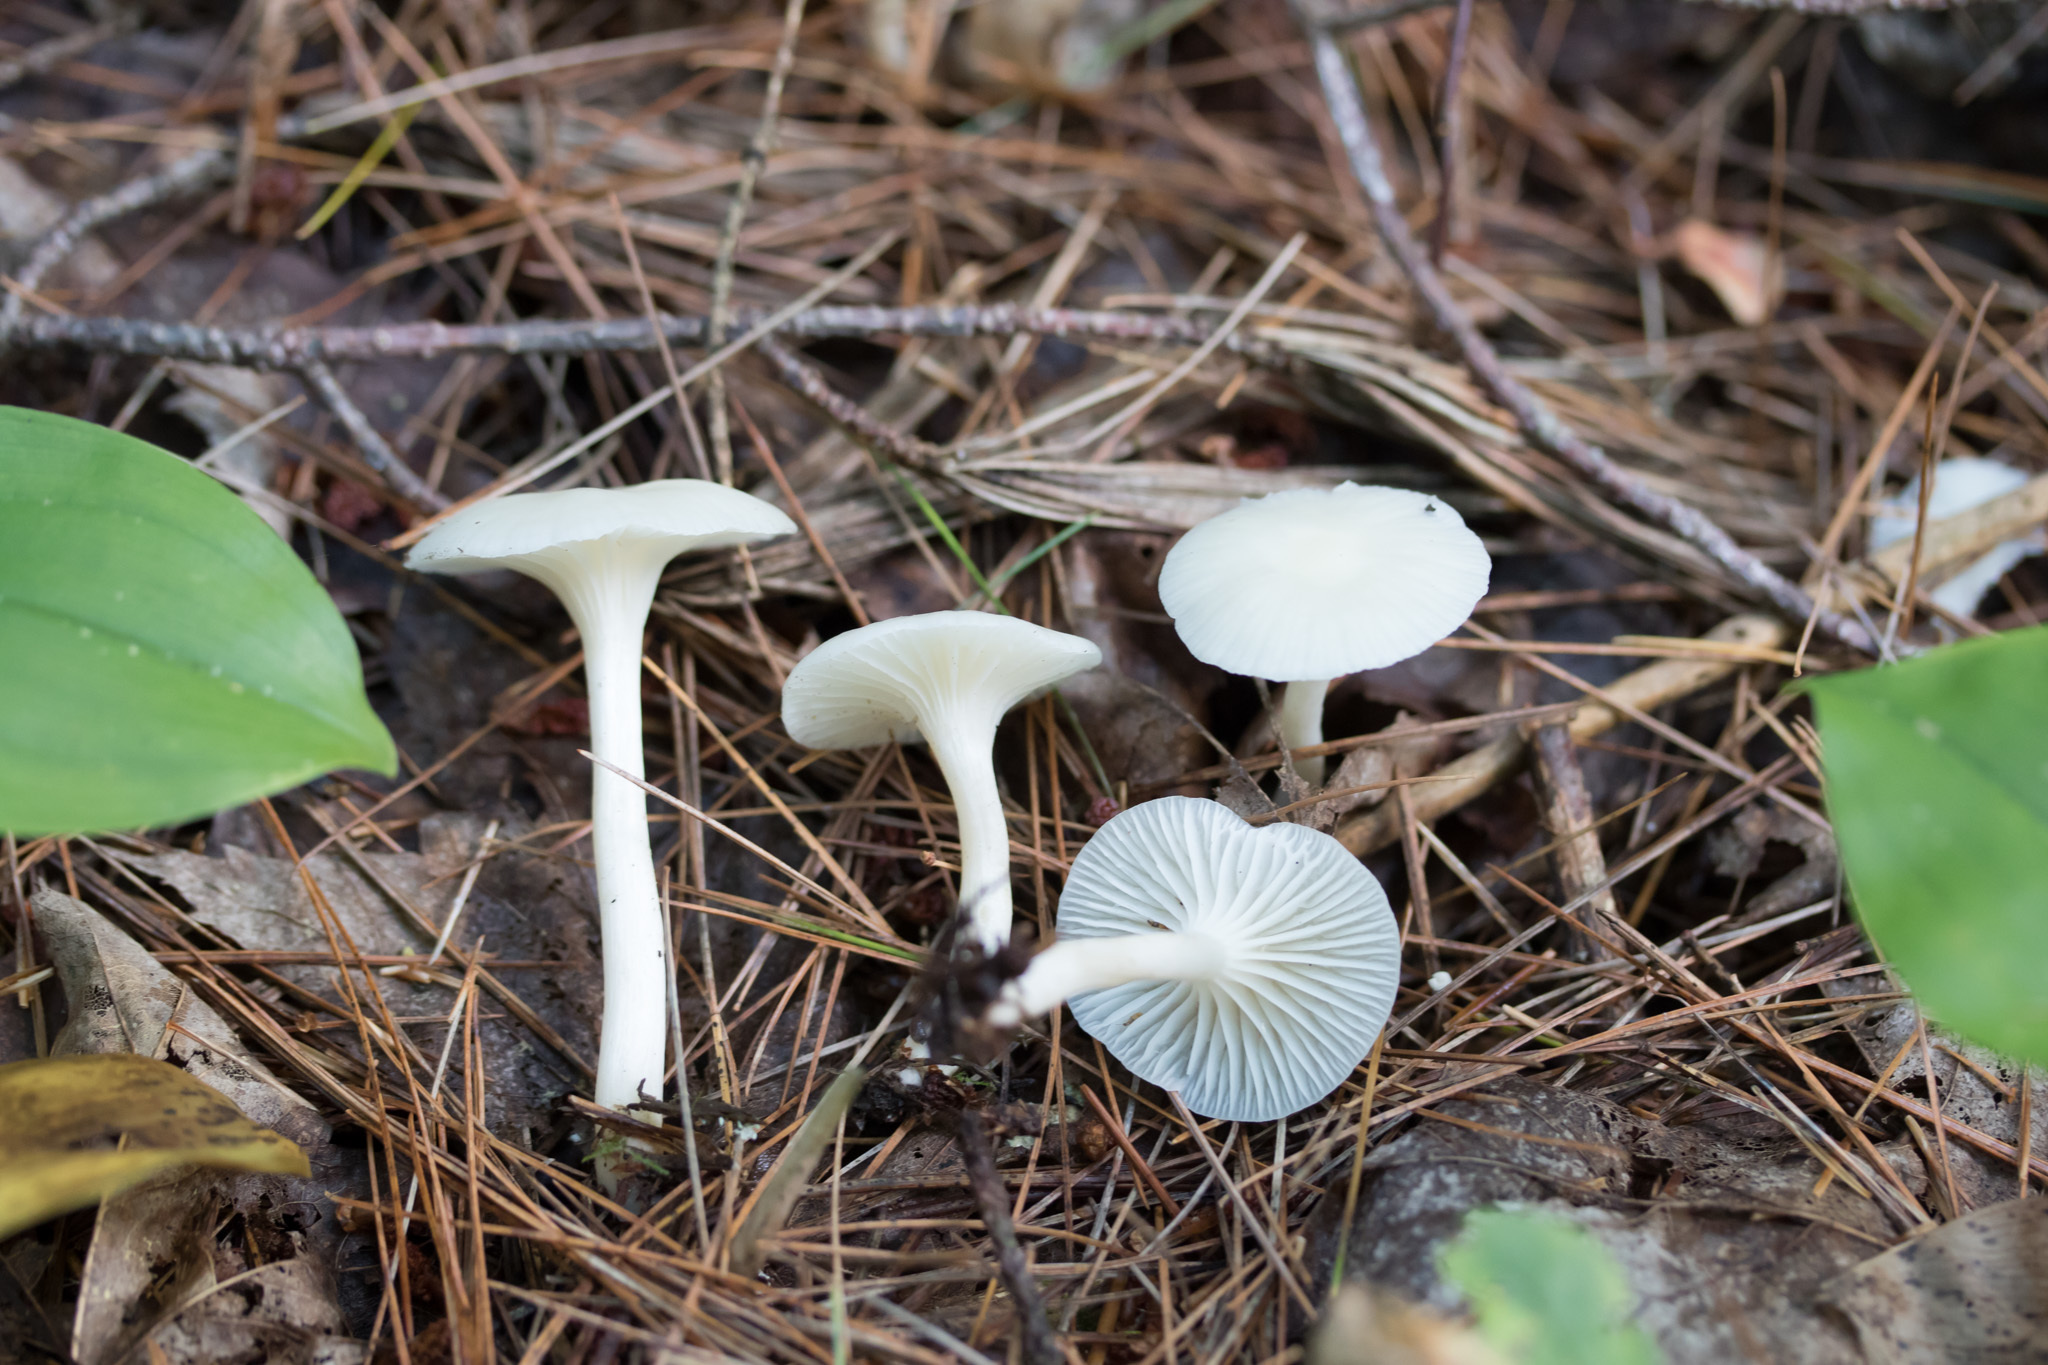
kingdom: Fungi
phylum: Basidiomycota
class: Agaricomycetes
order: Agaricales
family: Hygrophoraceae
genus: Cuphophyllus
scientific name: Cuphophyllus virgineus
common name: Snowy waxcap
